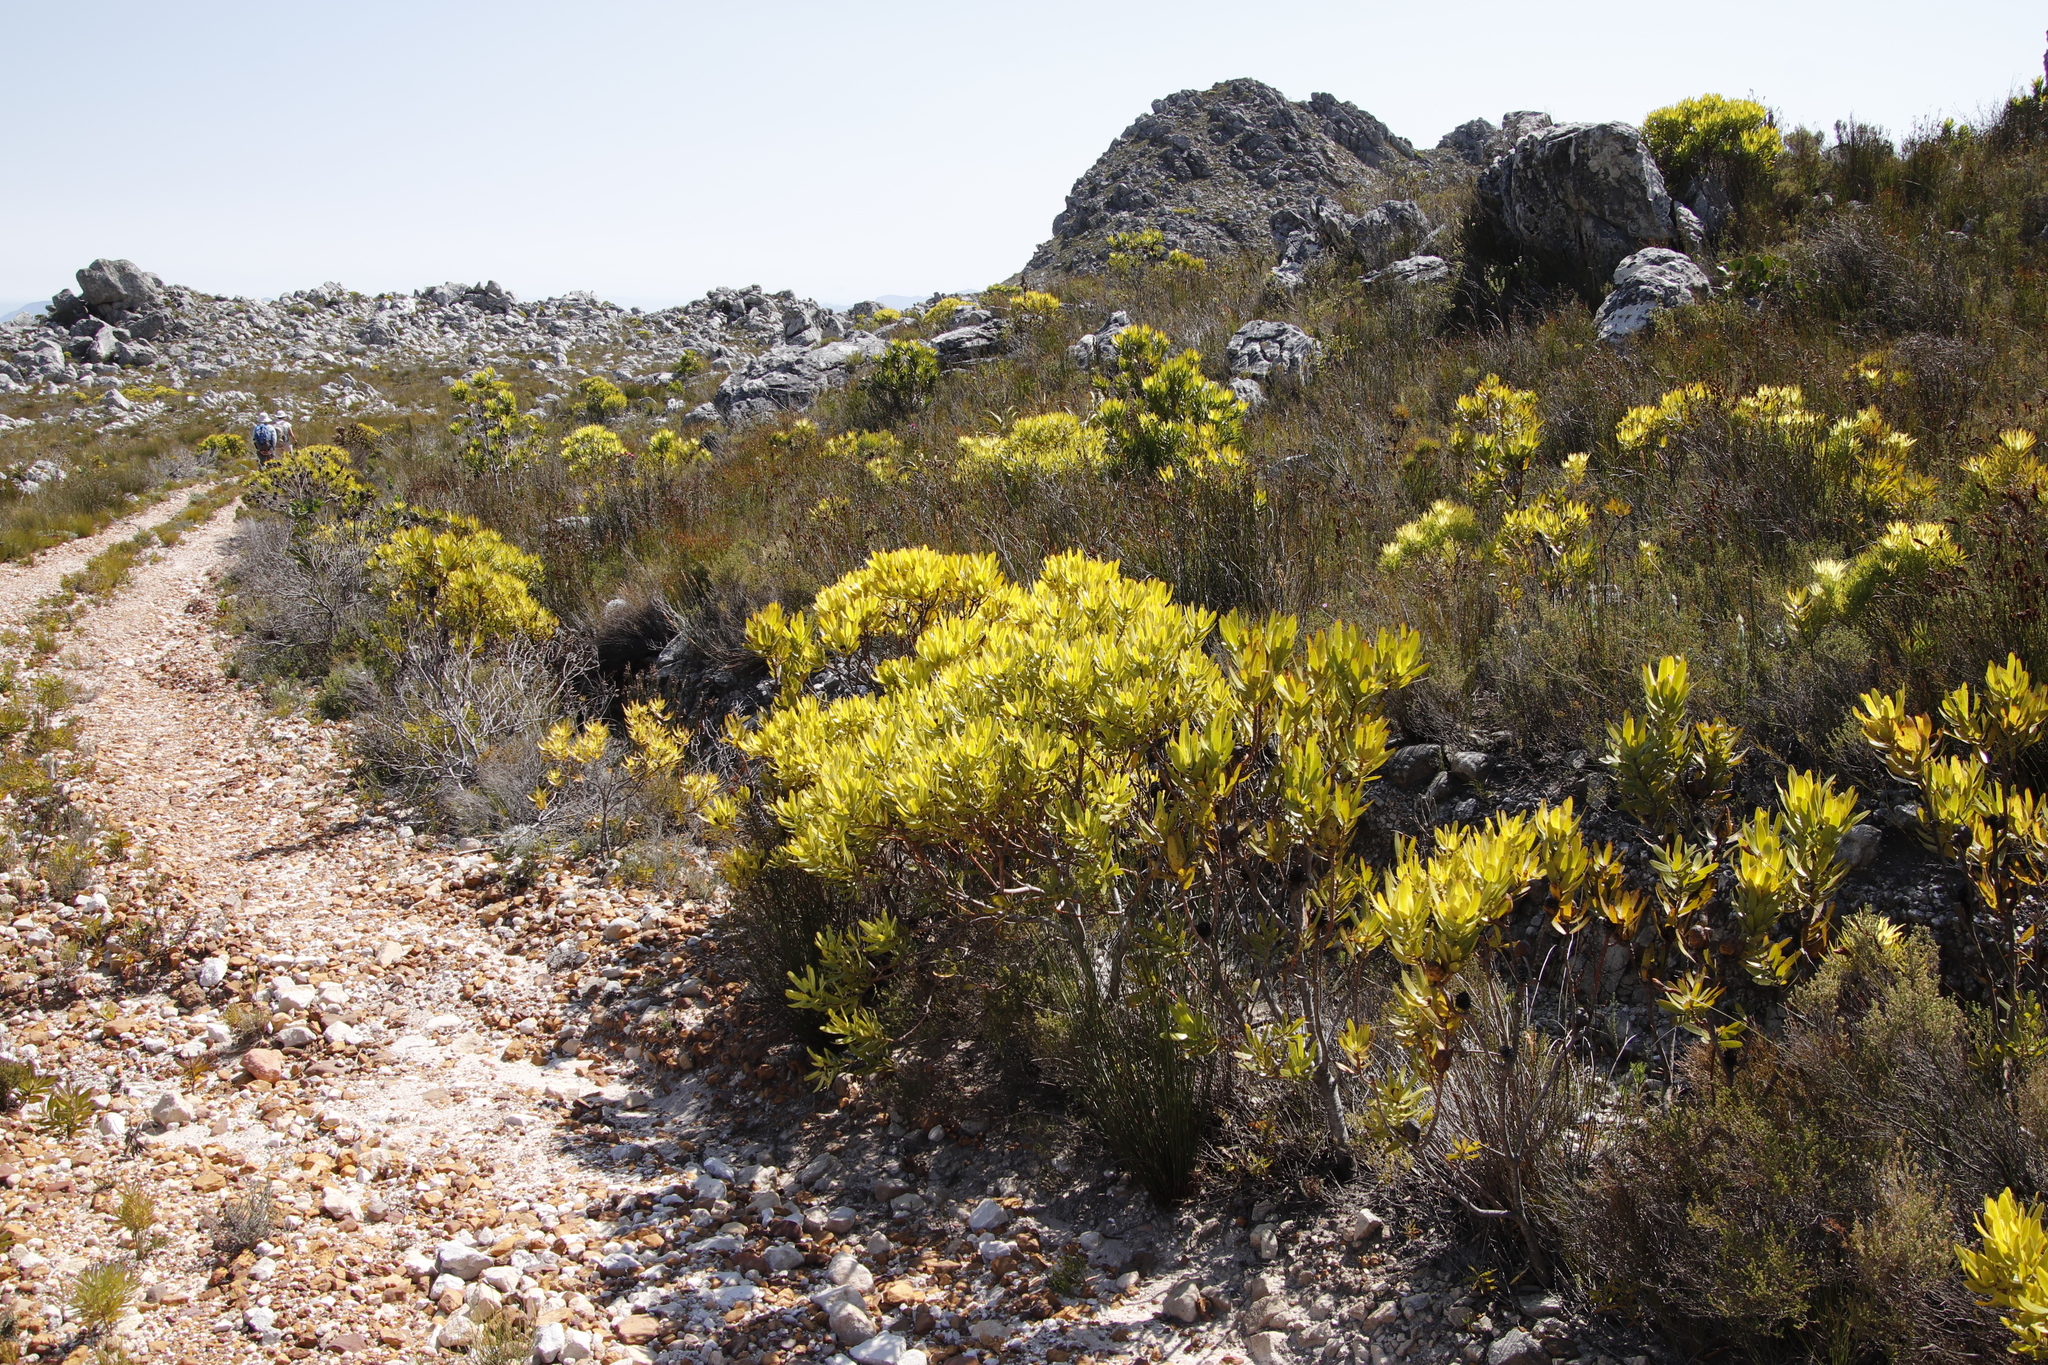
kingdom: Plantae
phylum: Tracheophyta
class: Magnoliopsida
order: Proteales
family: Proteaceae
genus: Leucadendron
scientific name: Leucadendron microcephalum
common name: Oilbract conebush
